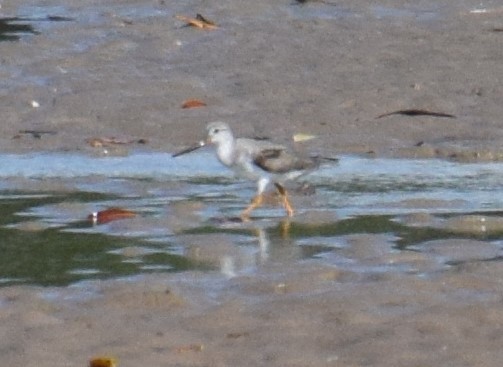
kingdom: Animalia
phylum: Chordata
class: Aves
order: Charadriiformes
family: Scolopacidae
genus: Xenus
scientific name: Xenus cinereus
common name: Terek sandpiper
